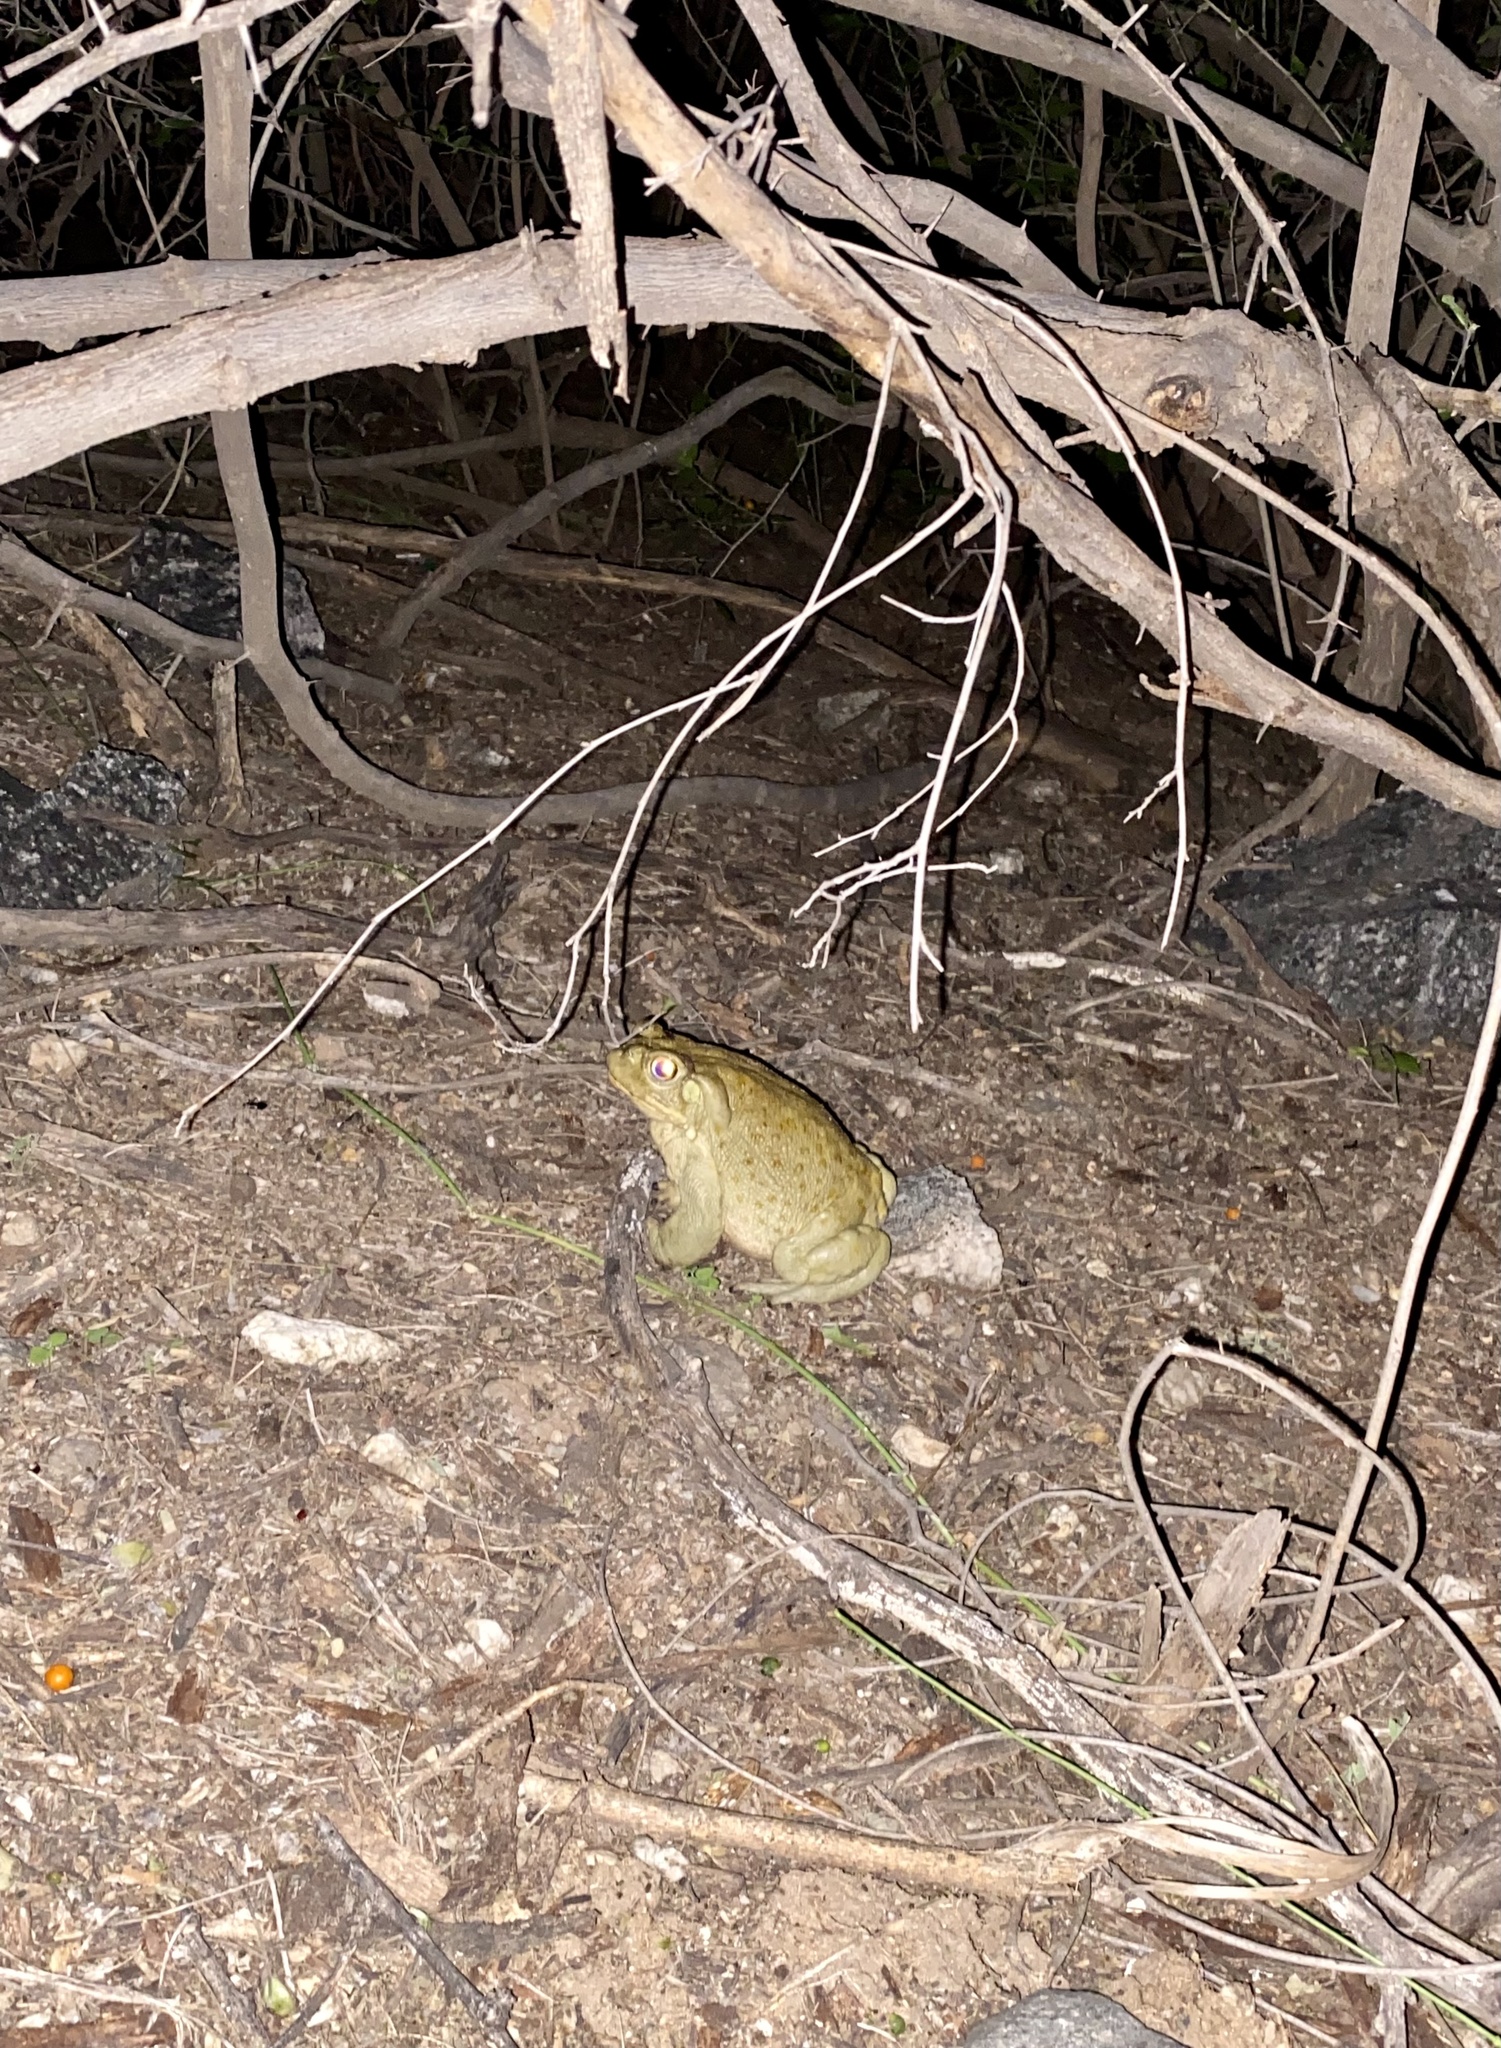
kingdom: Animalia
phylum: Chordata
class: Amphibia
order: Anura
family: Bufonidae
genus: Incilius
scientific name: Incilius alvarius
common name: Sonoran desert toad
